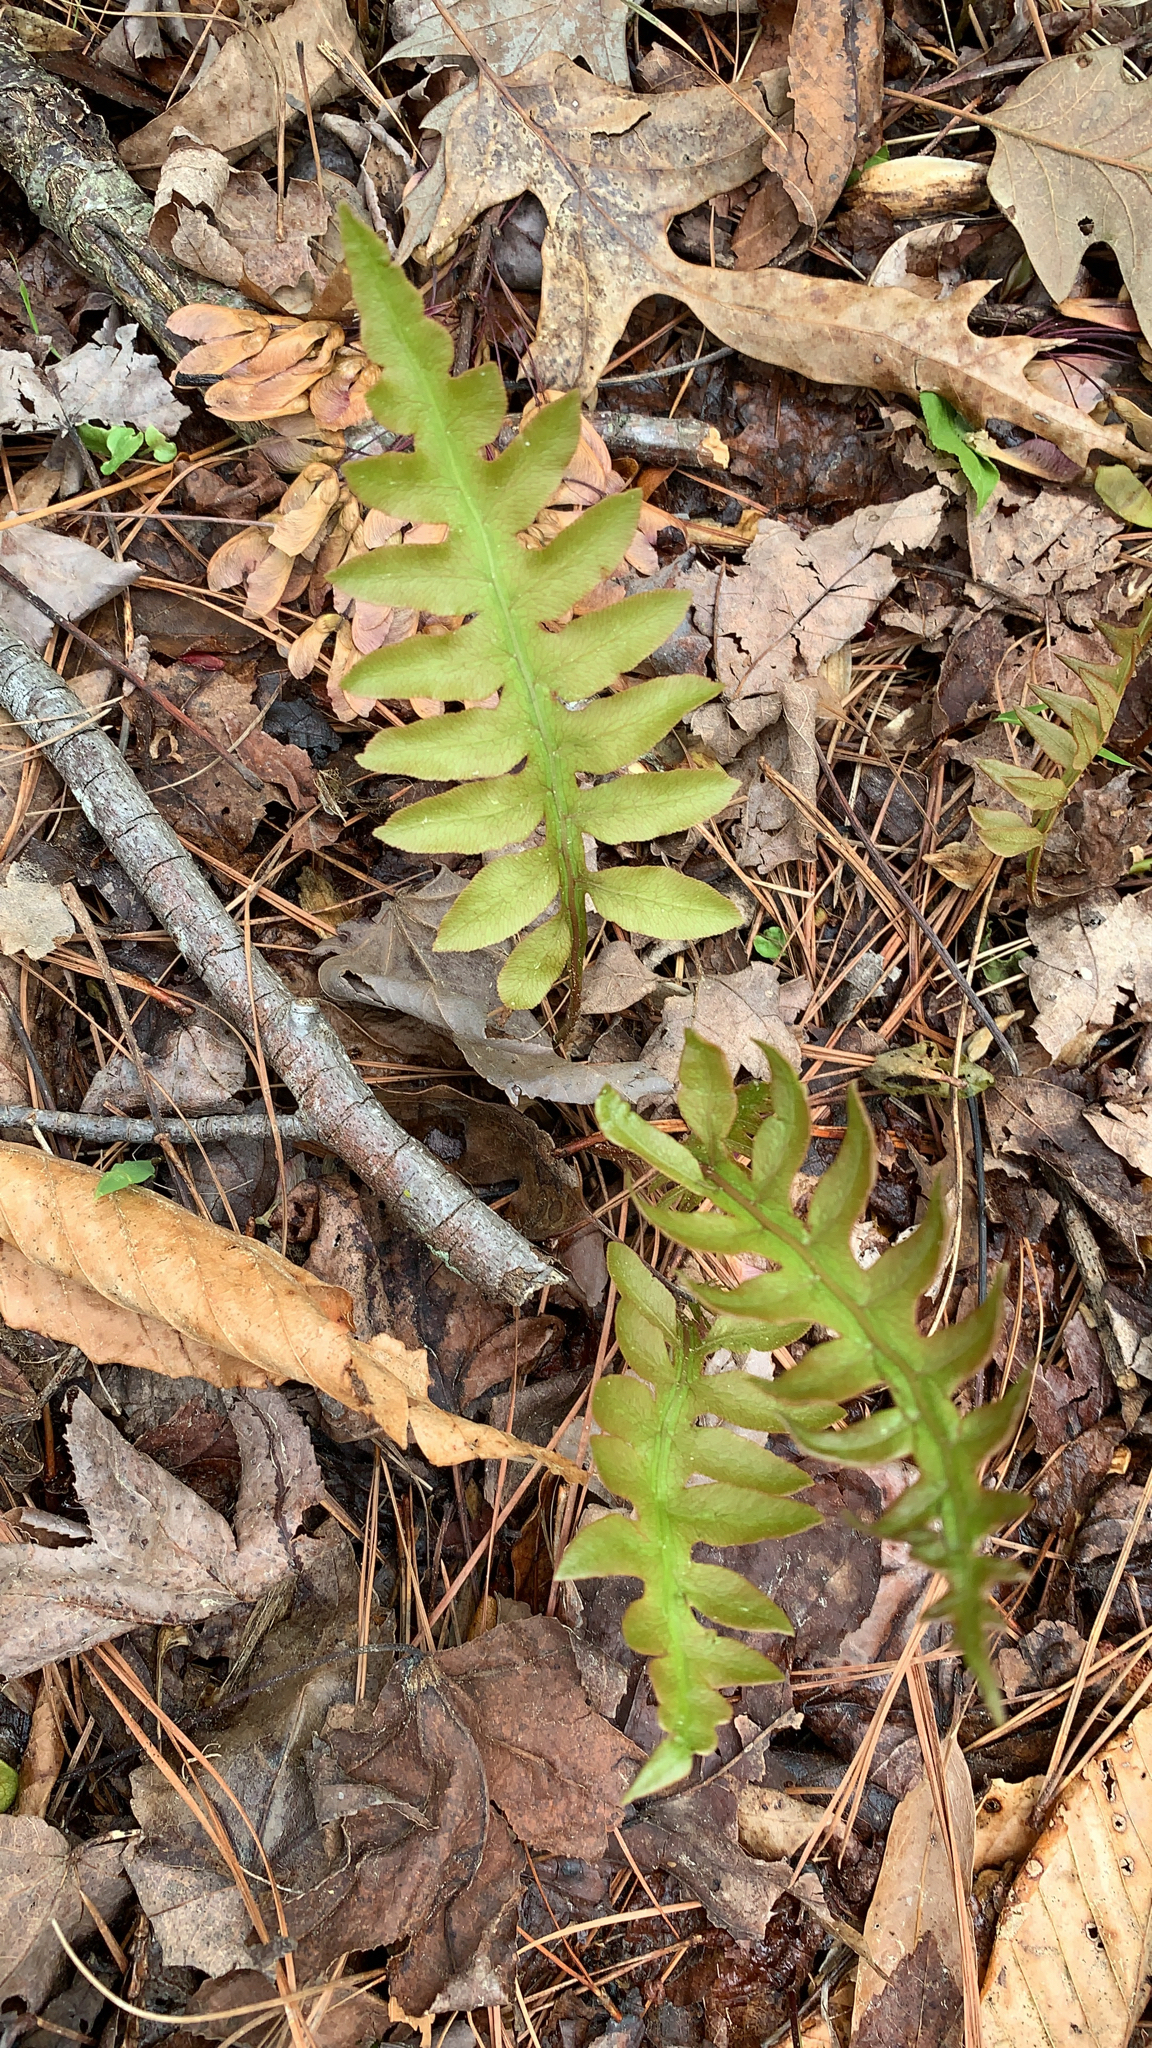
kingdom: Plantae
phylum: Tracheophyta
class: Polypodiopsida
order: Polypodiales
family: Blechnaceae
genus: Lorinseria
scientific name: Lorinseria areolata
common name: Dwarf chain fern
